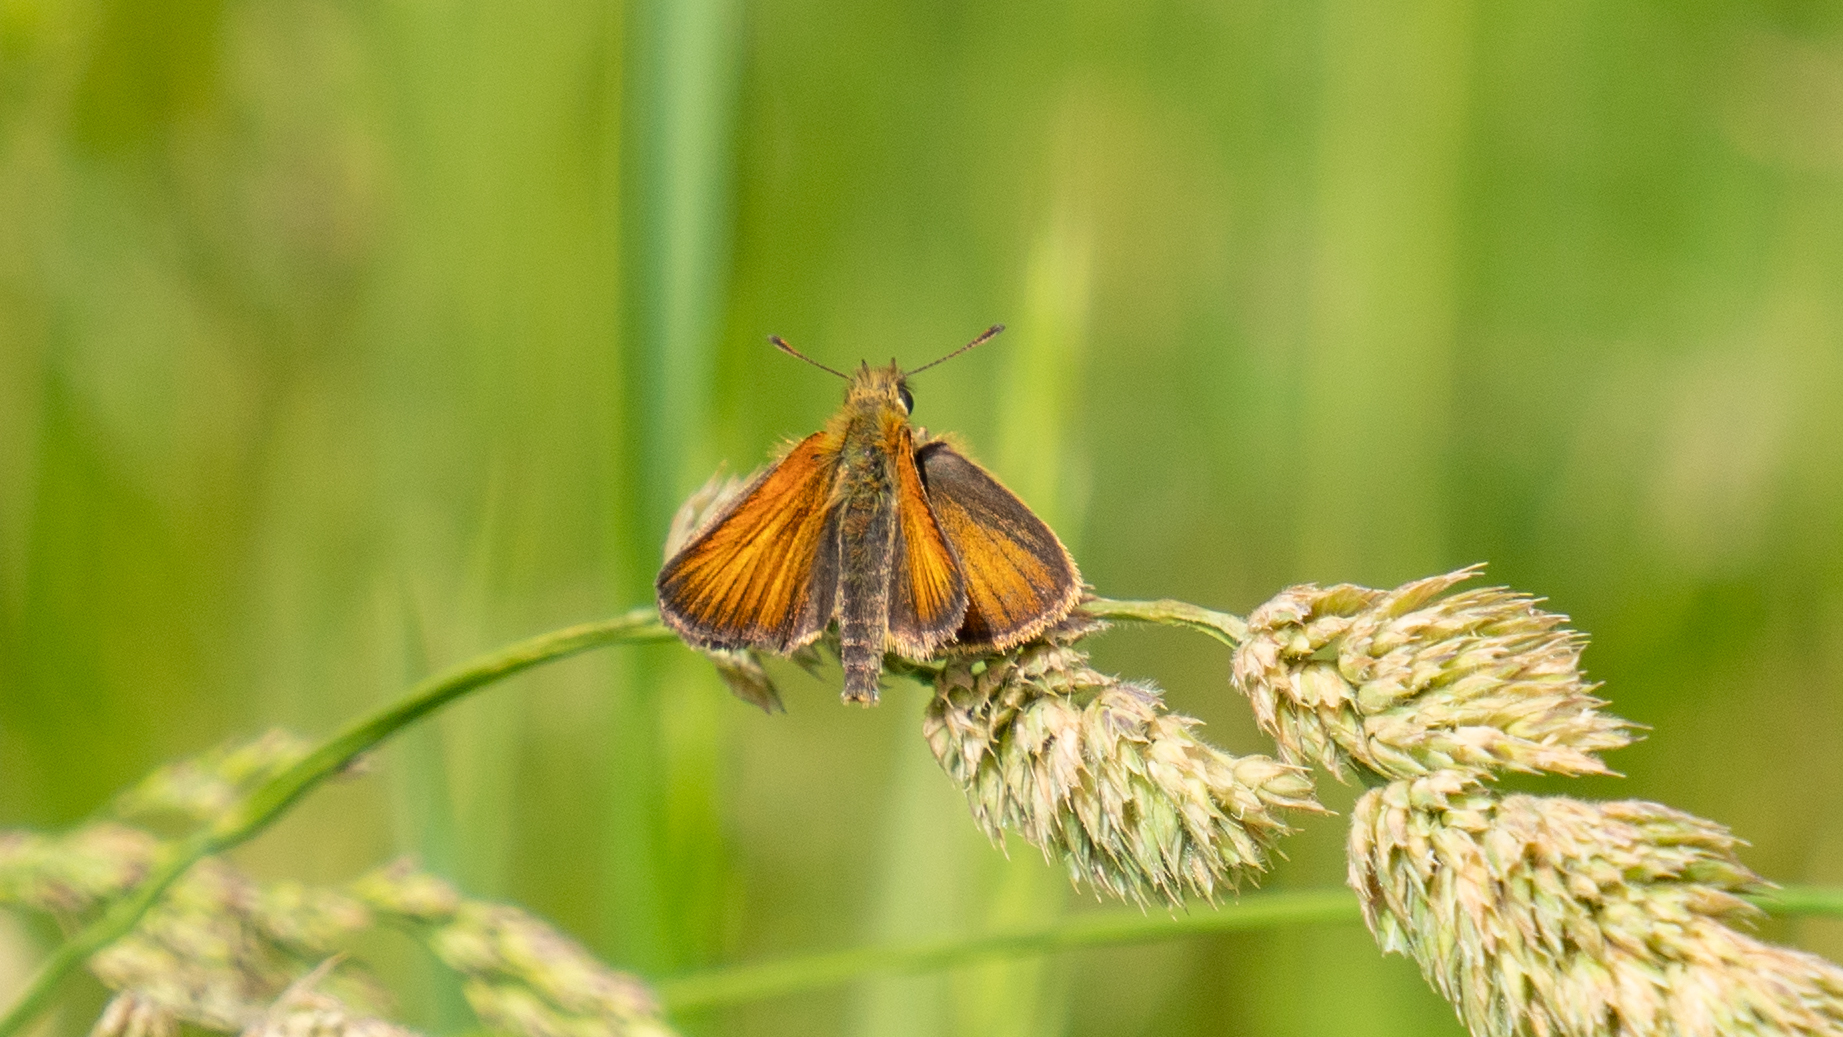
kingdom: Animalia
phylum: Arthropoda
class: Insecta
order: Lepidoptera
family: Hesperiidae
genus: Thymelicus
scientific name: Thymelicus lineola
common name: Essex skipper
